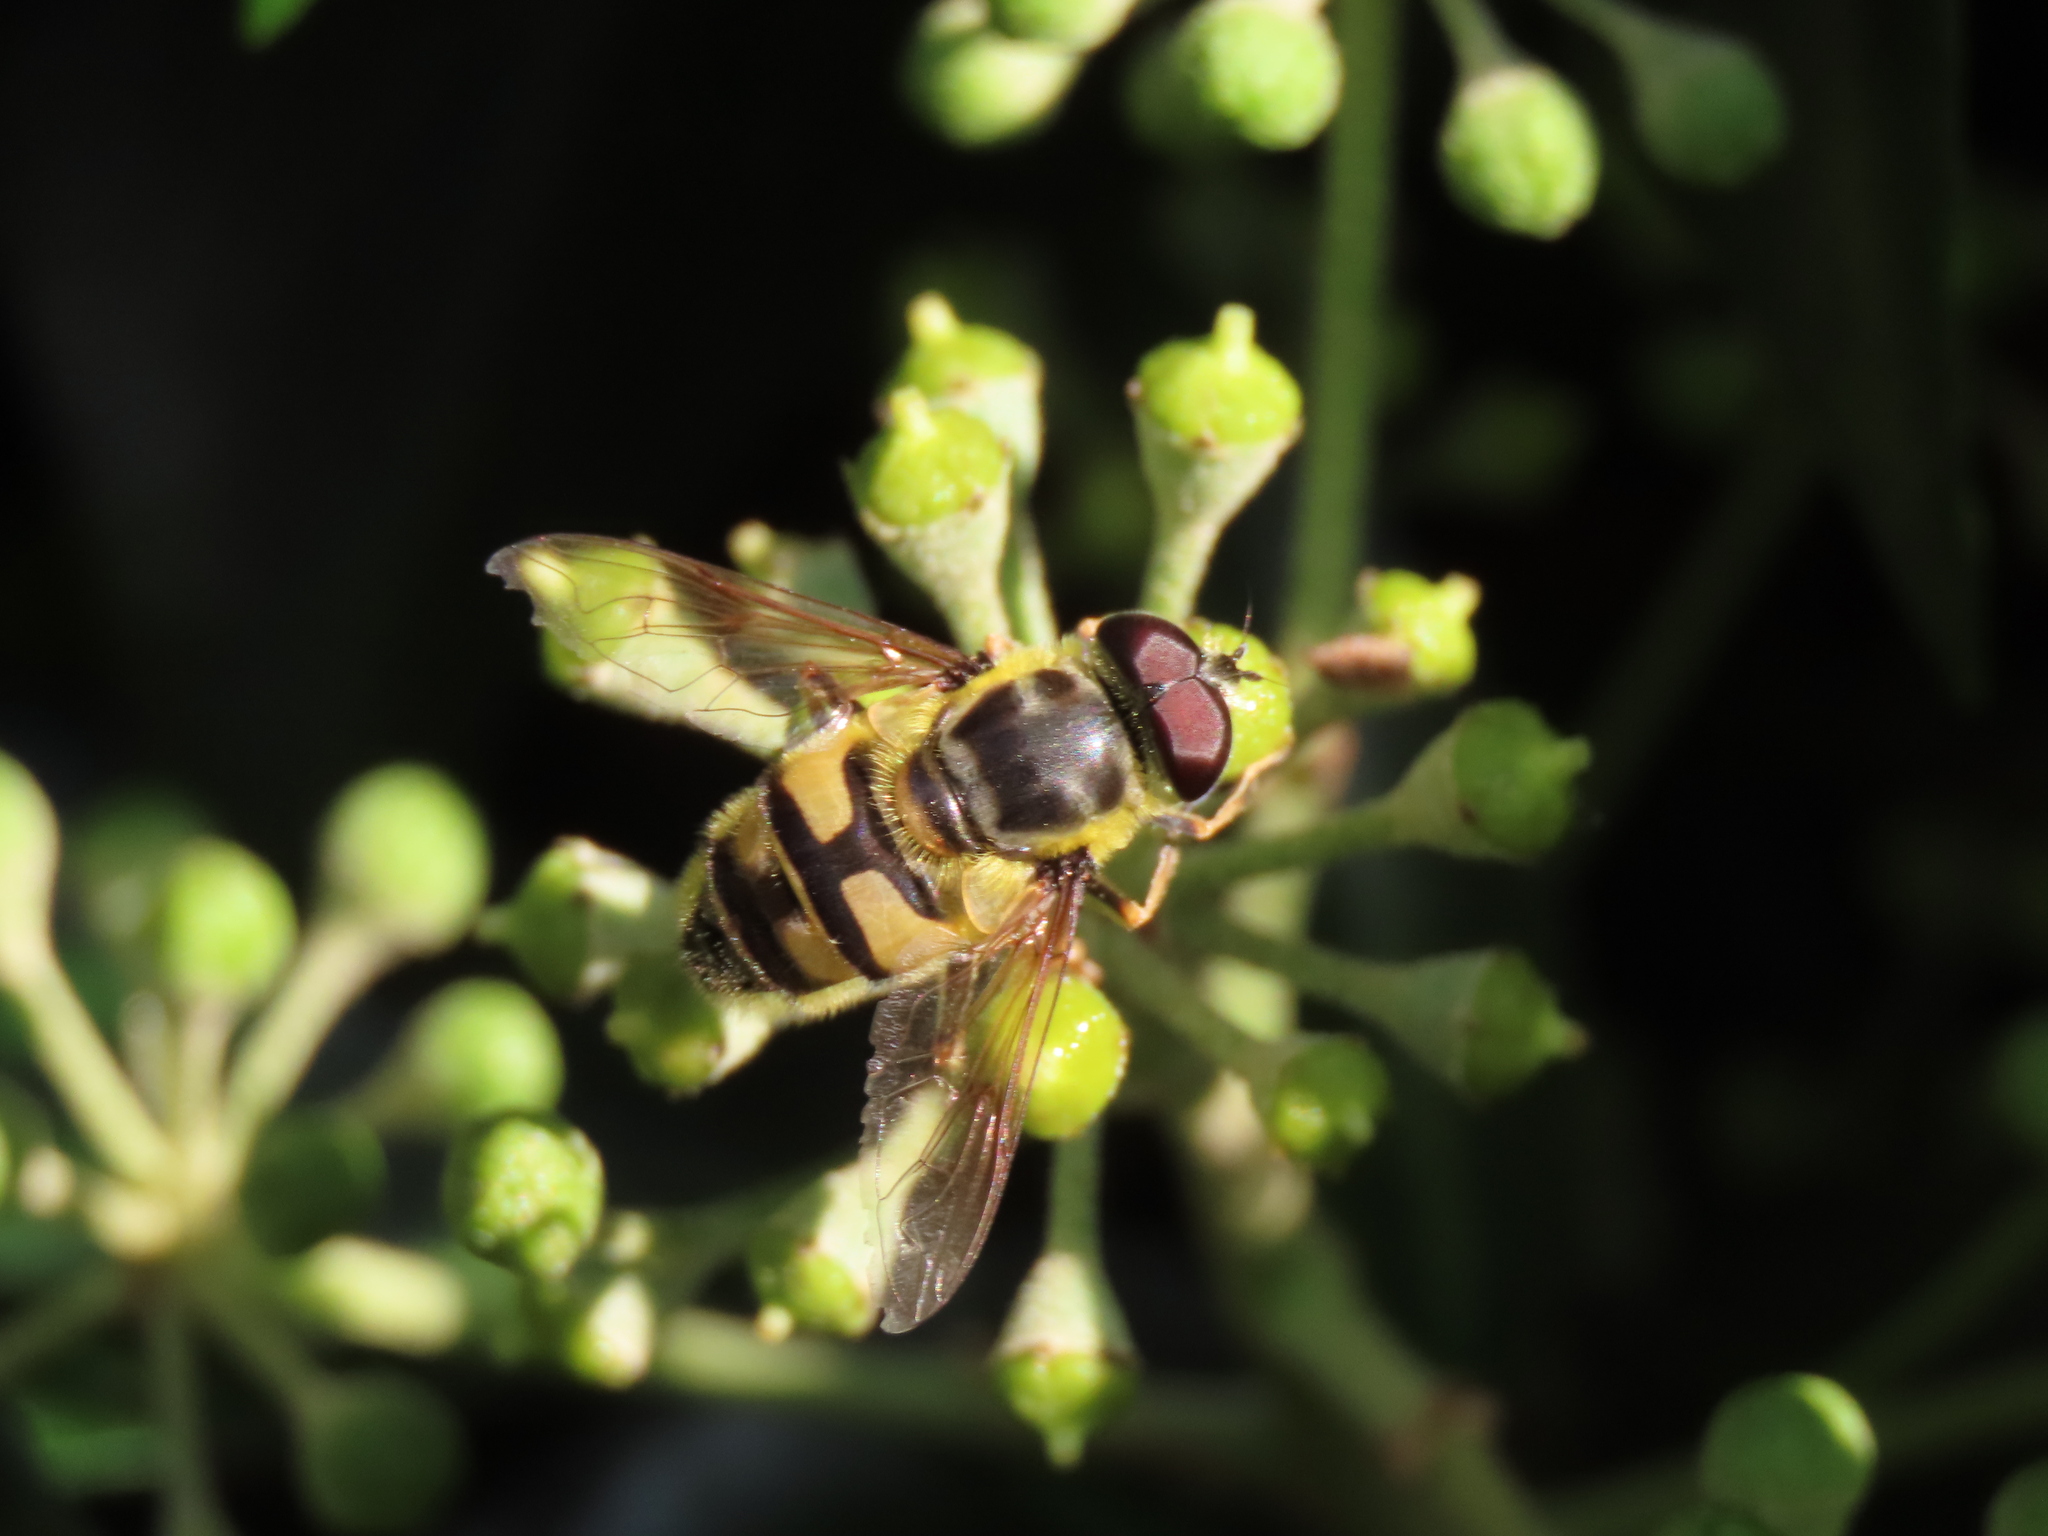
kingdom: Animalia
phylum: Arthropoda
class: Insecta
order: Diptera
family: Syrphidae
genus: Myathropa
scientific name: Myathropa florea
